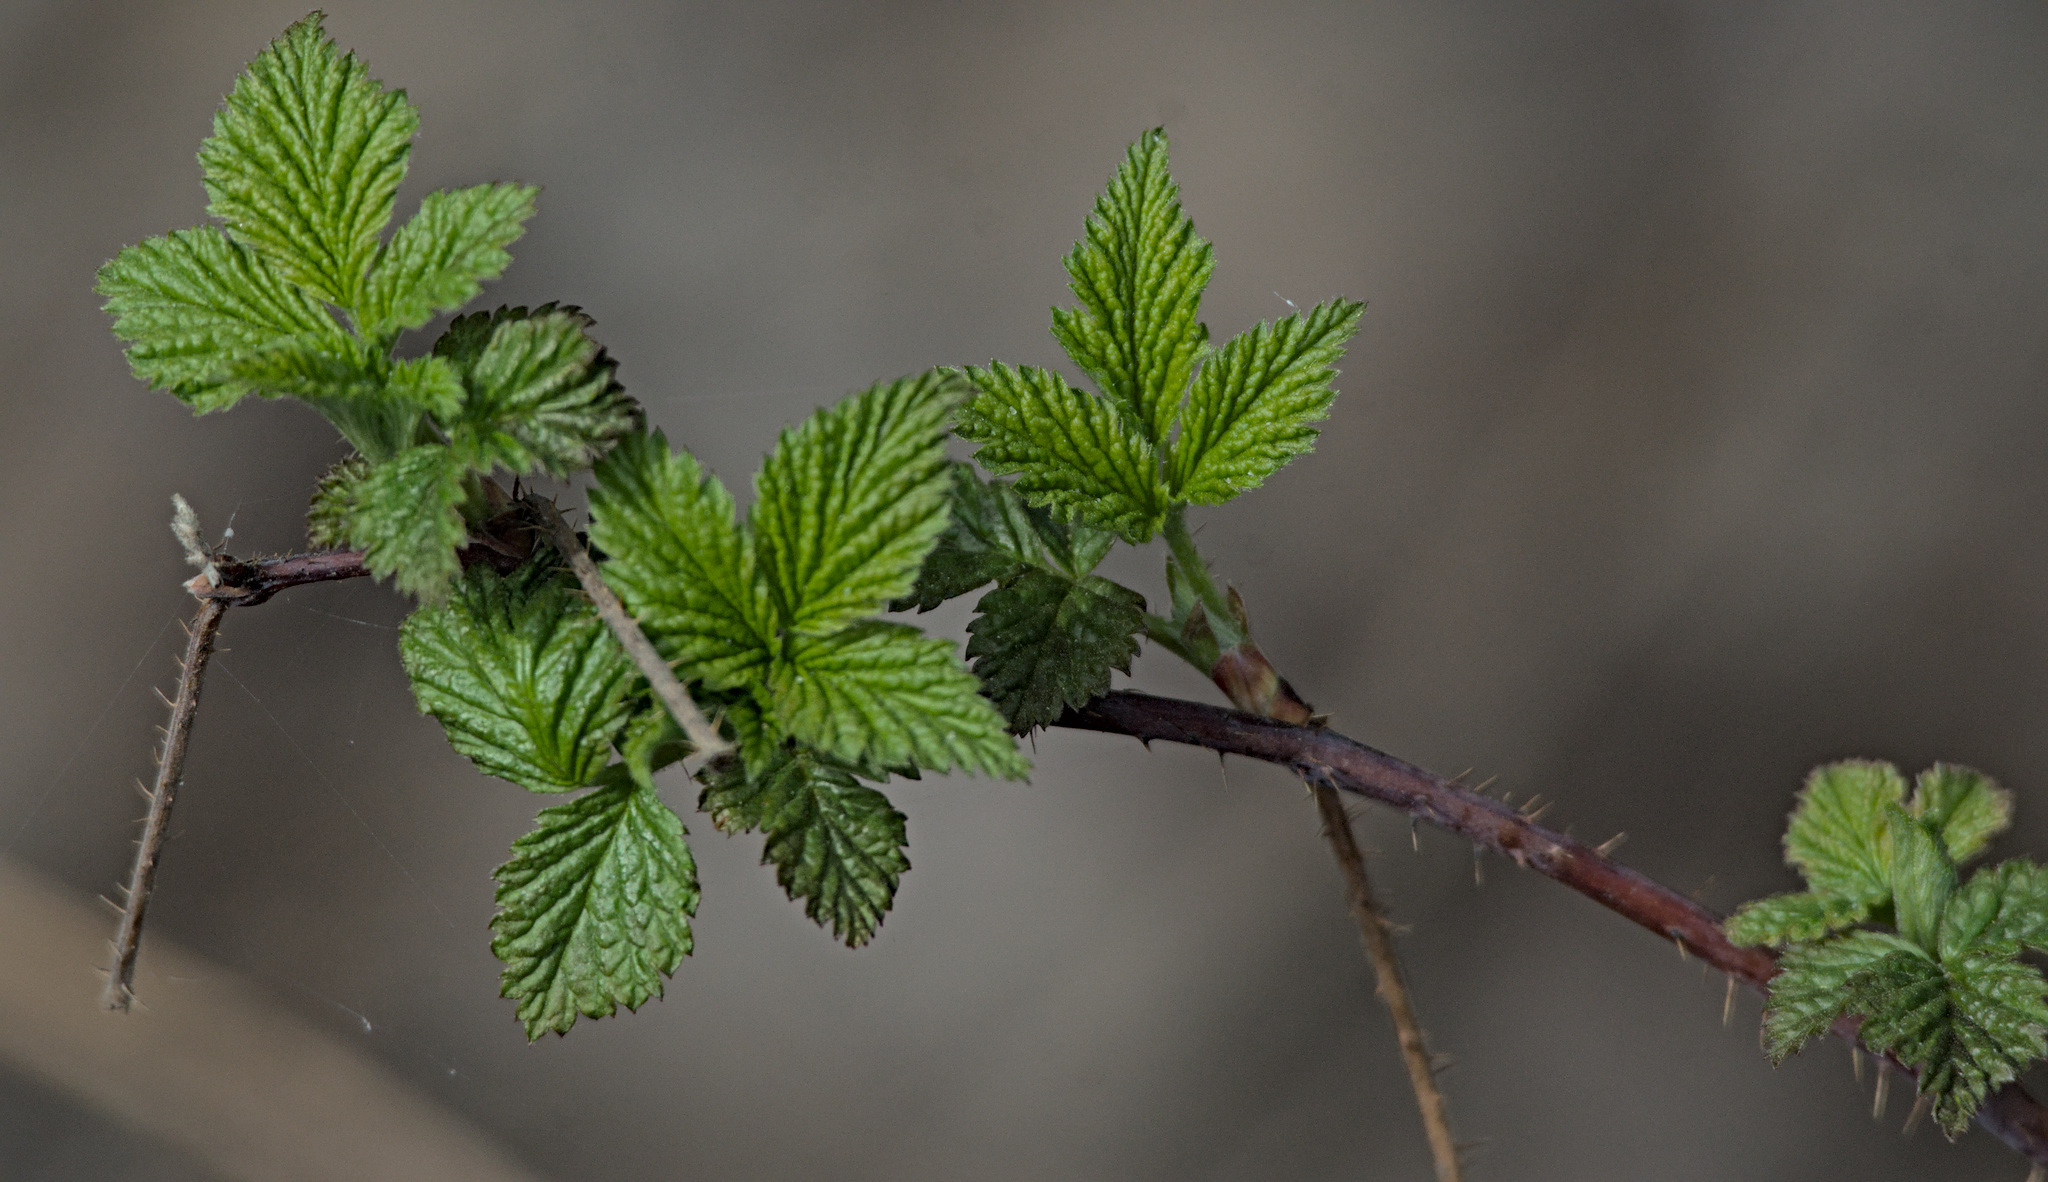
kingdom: Plantae
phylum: Tracheophyta
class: Magnoliopsida
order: Rosales
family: Rosaceae
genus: Rubus
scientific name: Rubus caesius
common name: Dewberry
